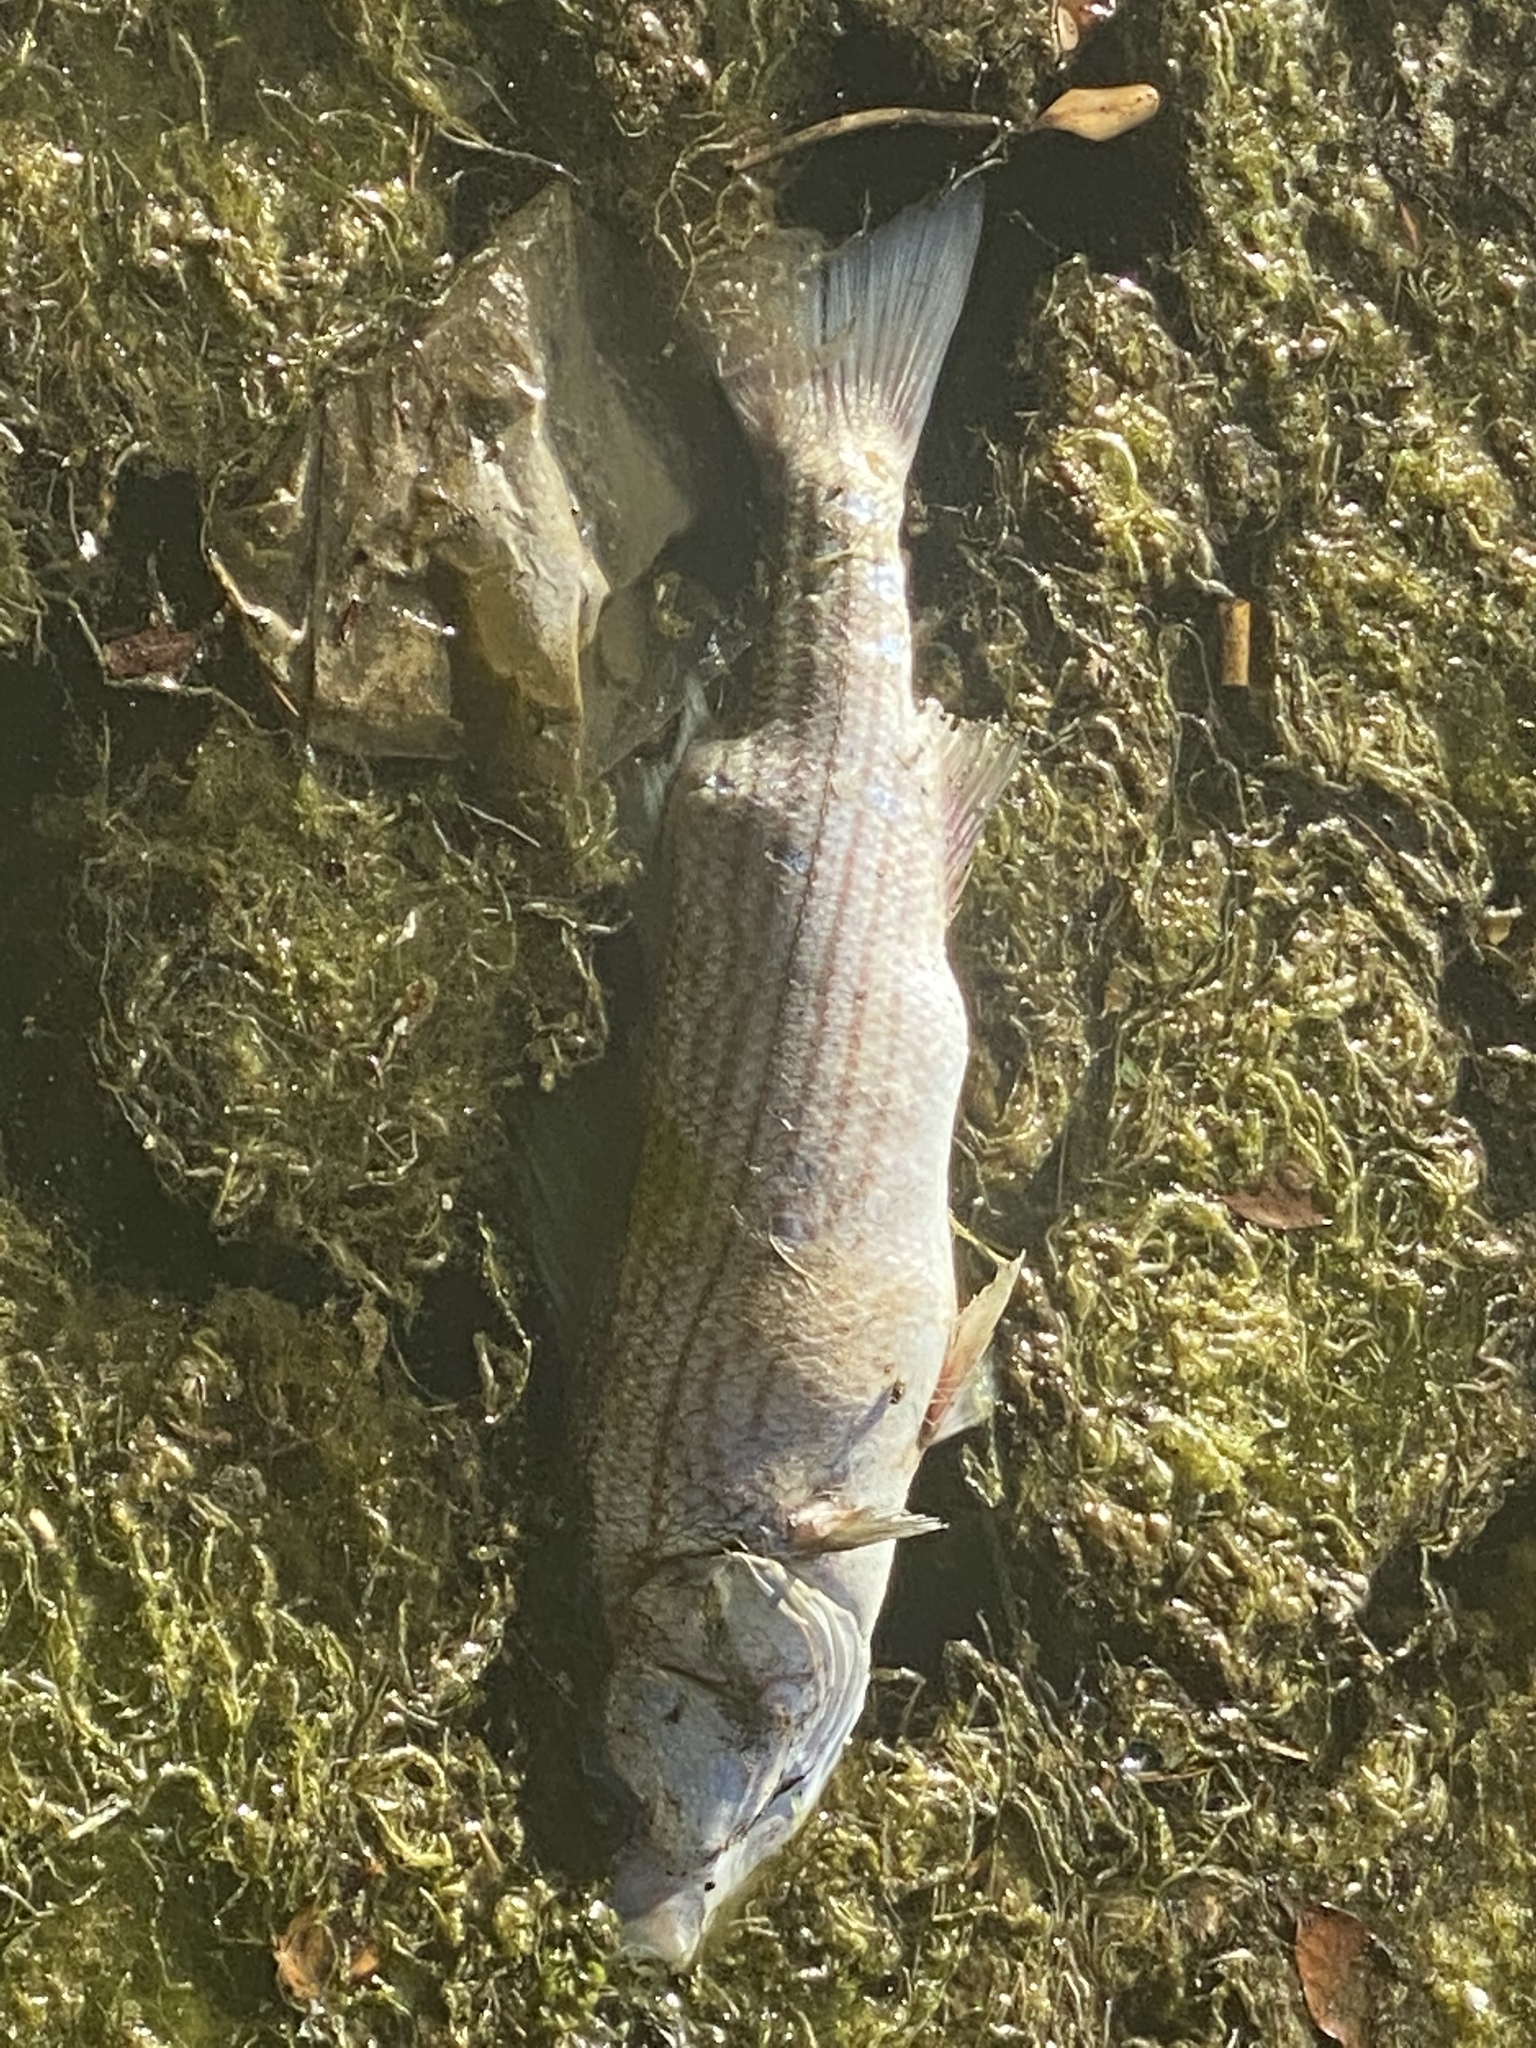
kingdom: Animalia
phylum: Chordata
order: Perciformes
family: Moronidae
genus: Morone
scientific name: Morone saxatilis
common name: Striped bass
